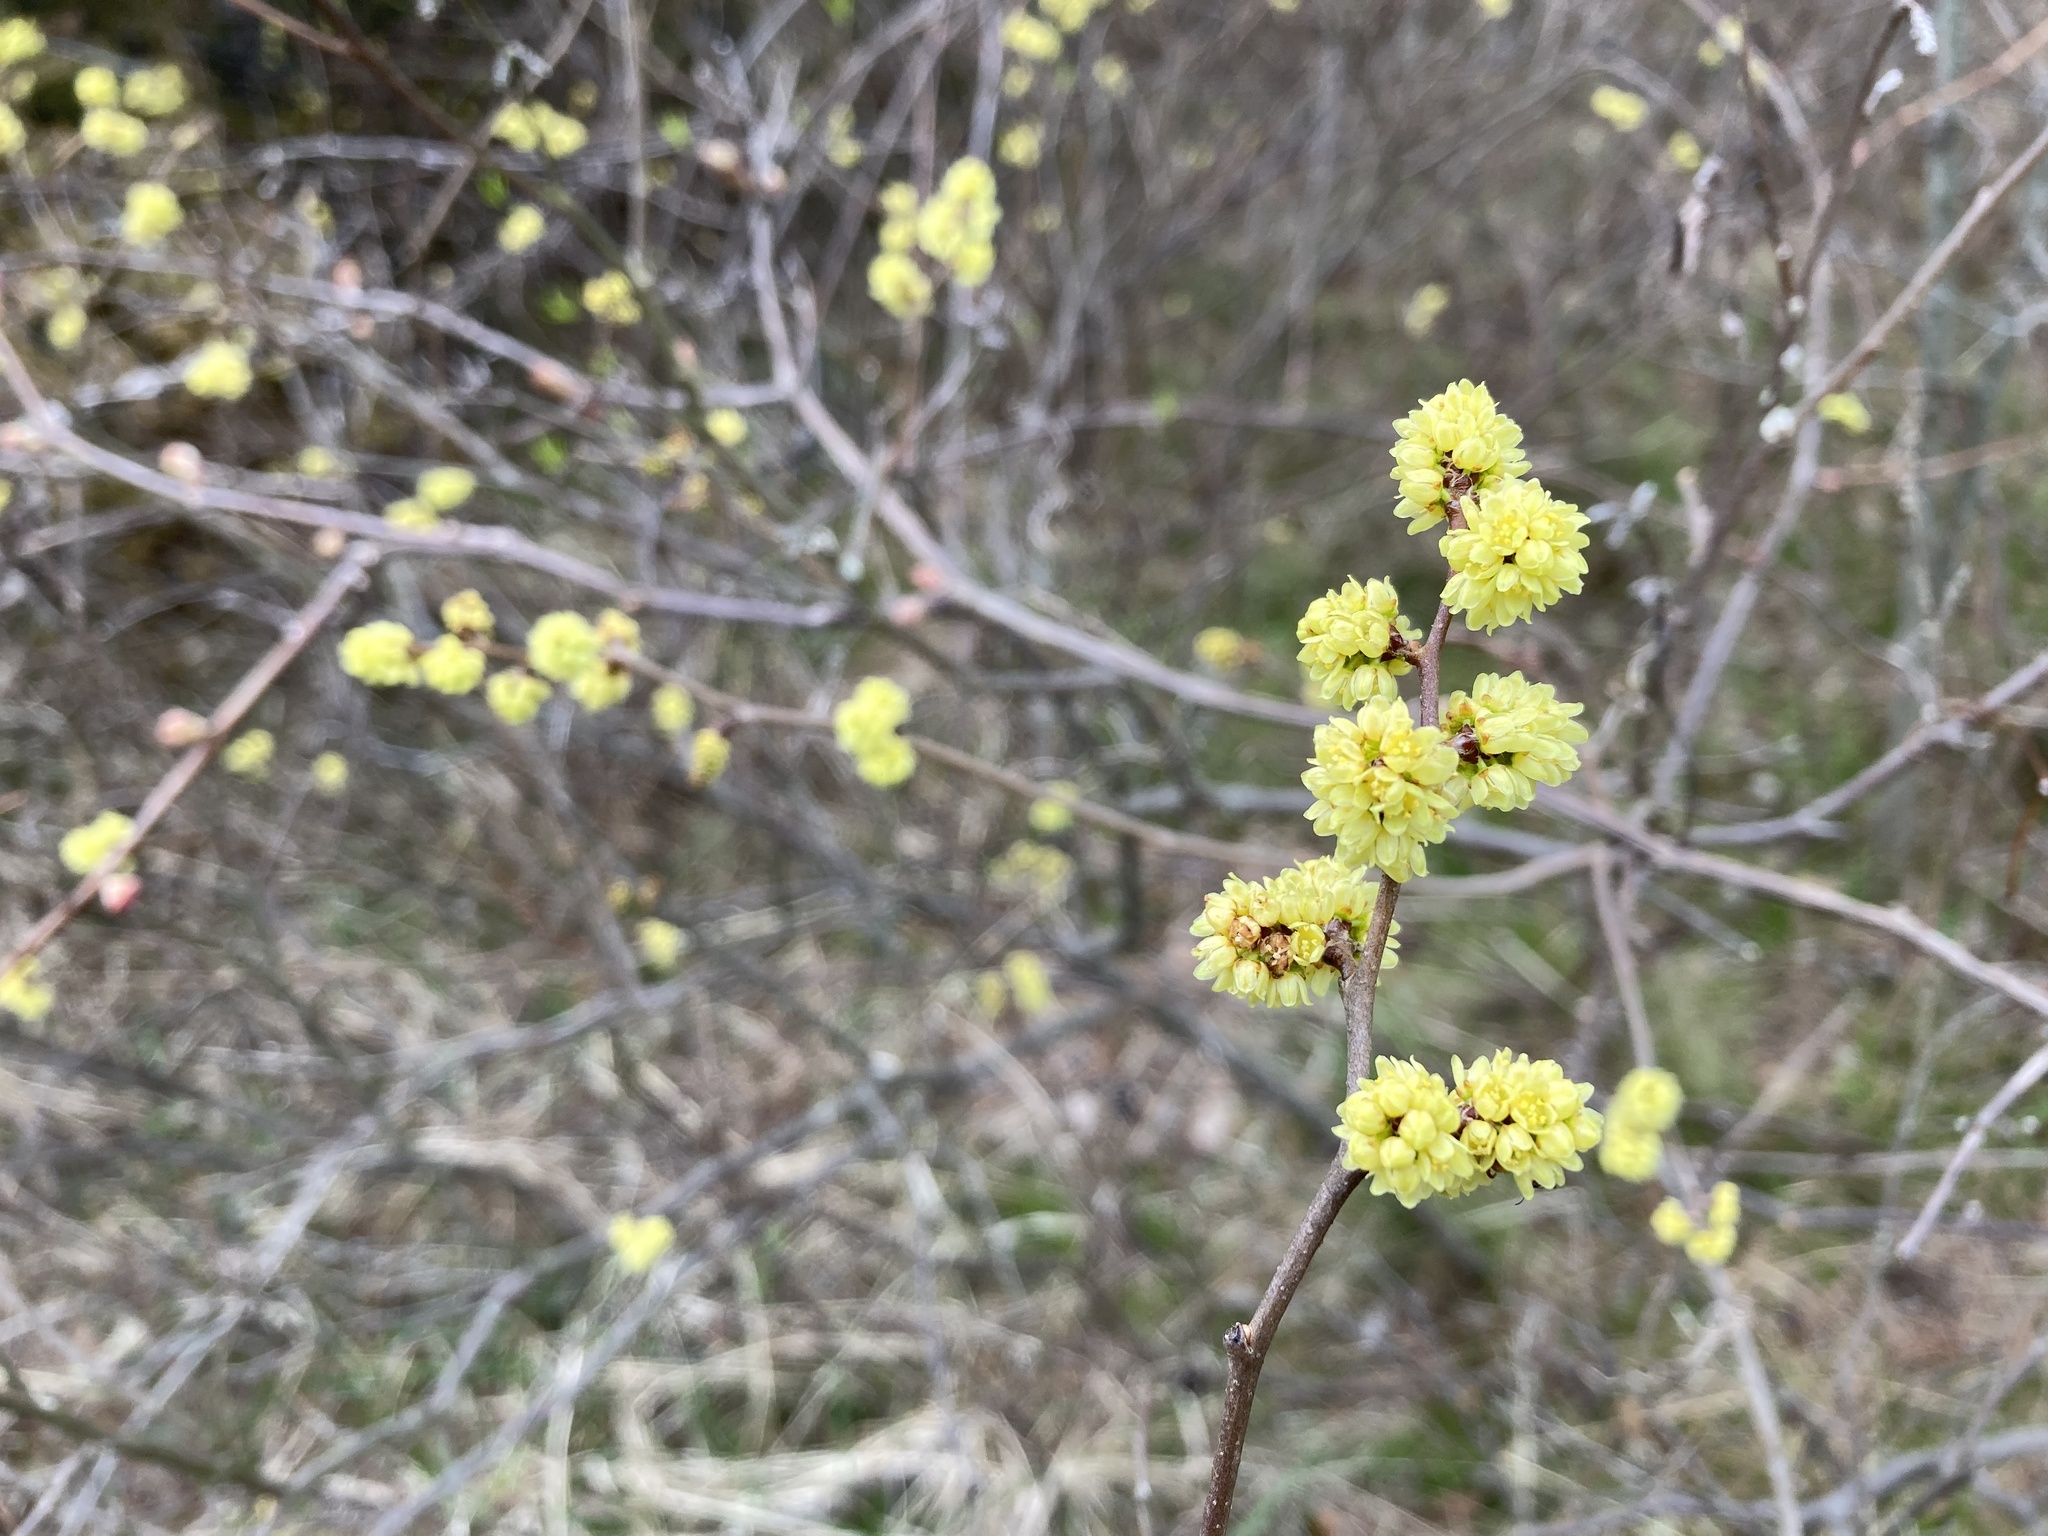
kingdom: Plantae
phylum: Tracheophyta
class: Magnoliopsida
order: Laurales
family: Lauraceae
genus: Lindera
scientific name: Lindera benzoin
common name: Spicebush
